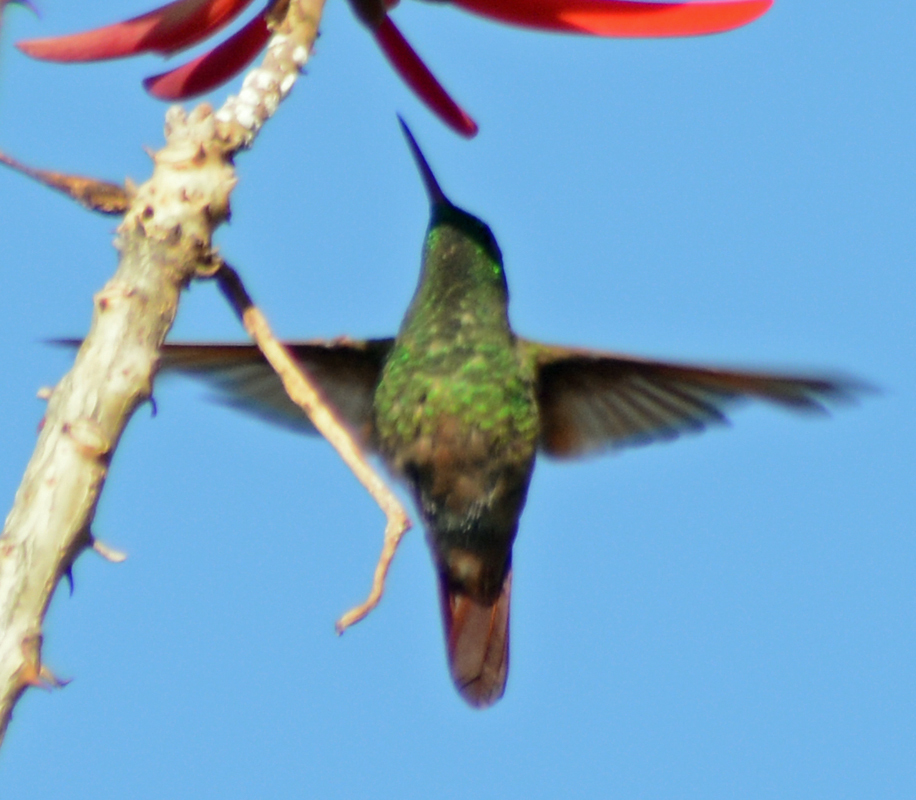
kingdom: Animalia
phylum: Chordata
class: Aves
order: Apodiformes
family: Trochilidae
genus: Saucerottia
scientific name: Saucerottia beryllina
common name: Berylline hummingbird
